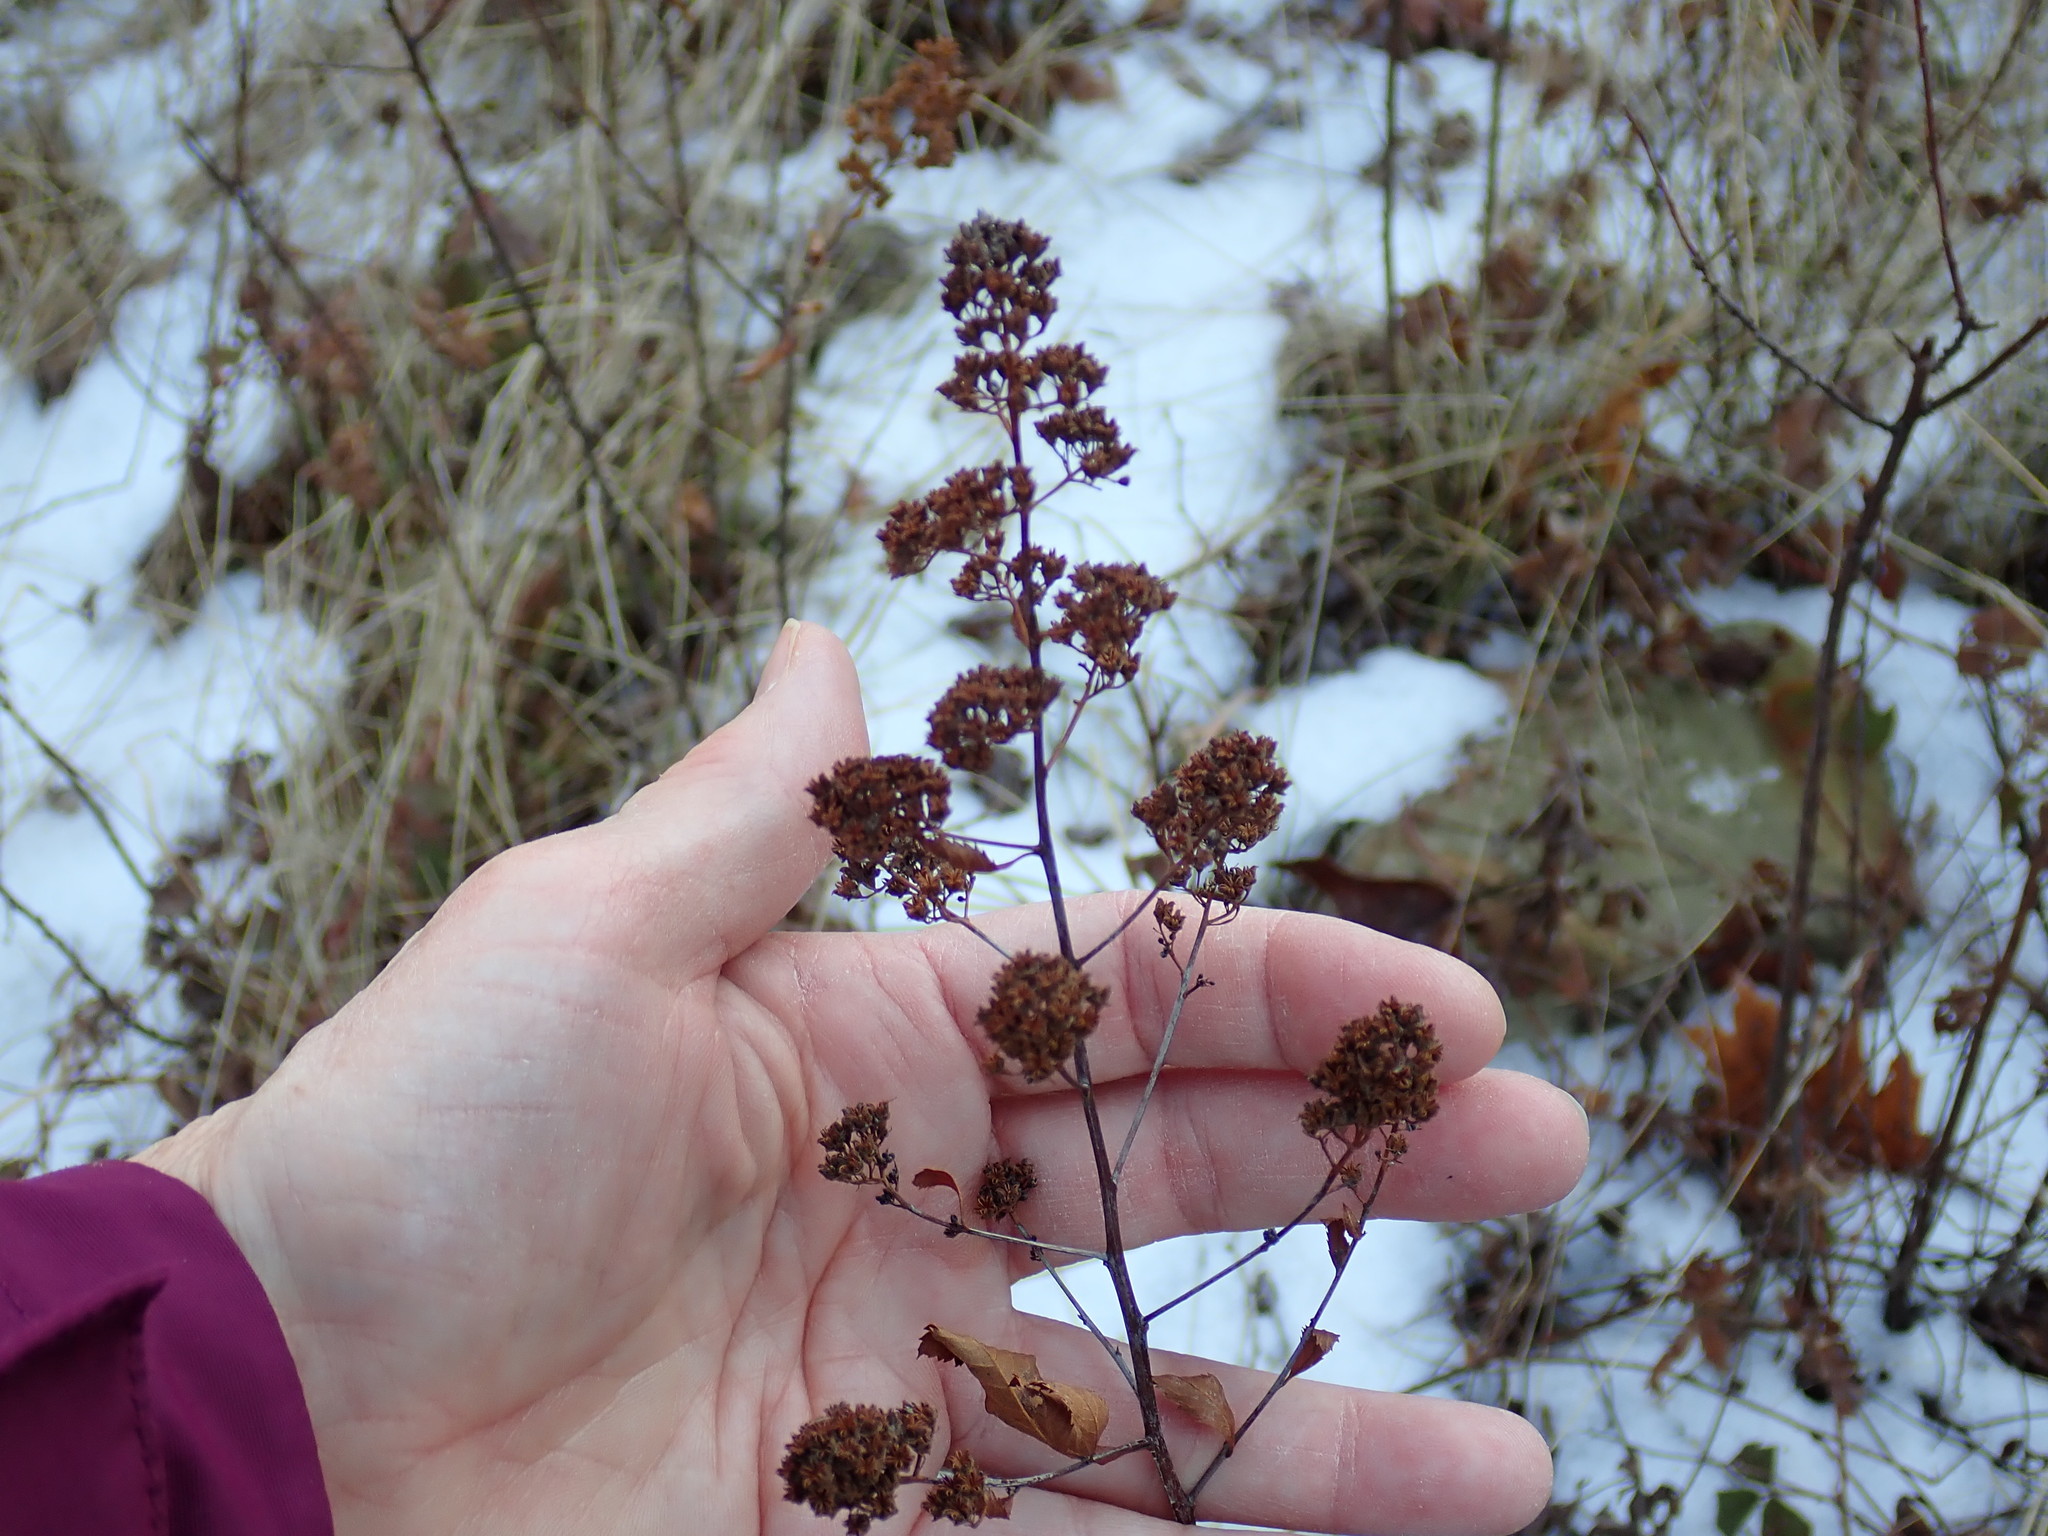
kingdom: Plantae
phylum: Tracheophyta
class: Magnoliopsida
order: Rosales
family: Rosaceae
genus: Spiraea
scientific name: Spiraea alba
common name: Pale bridewort
